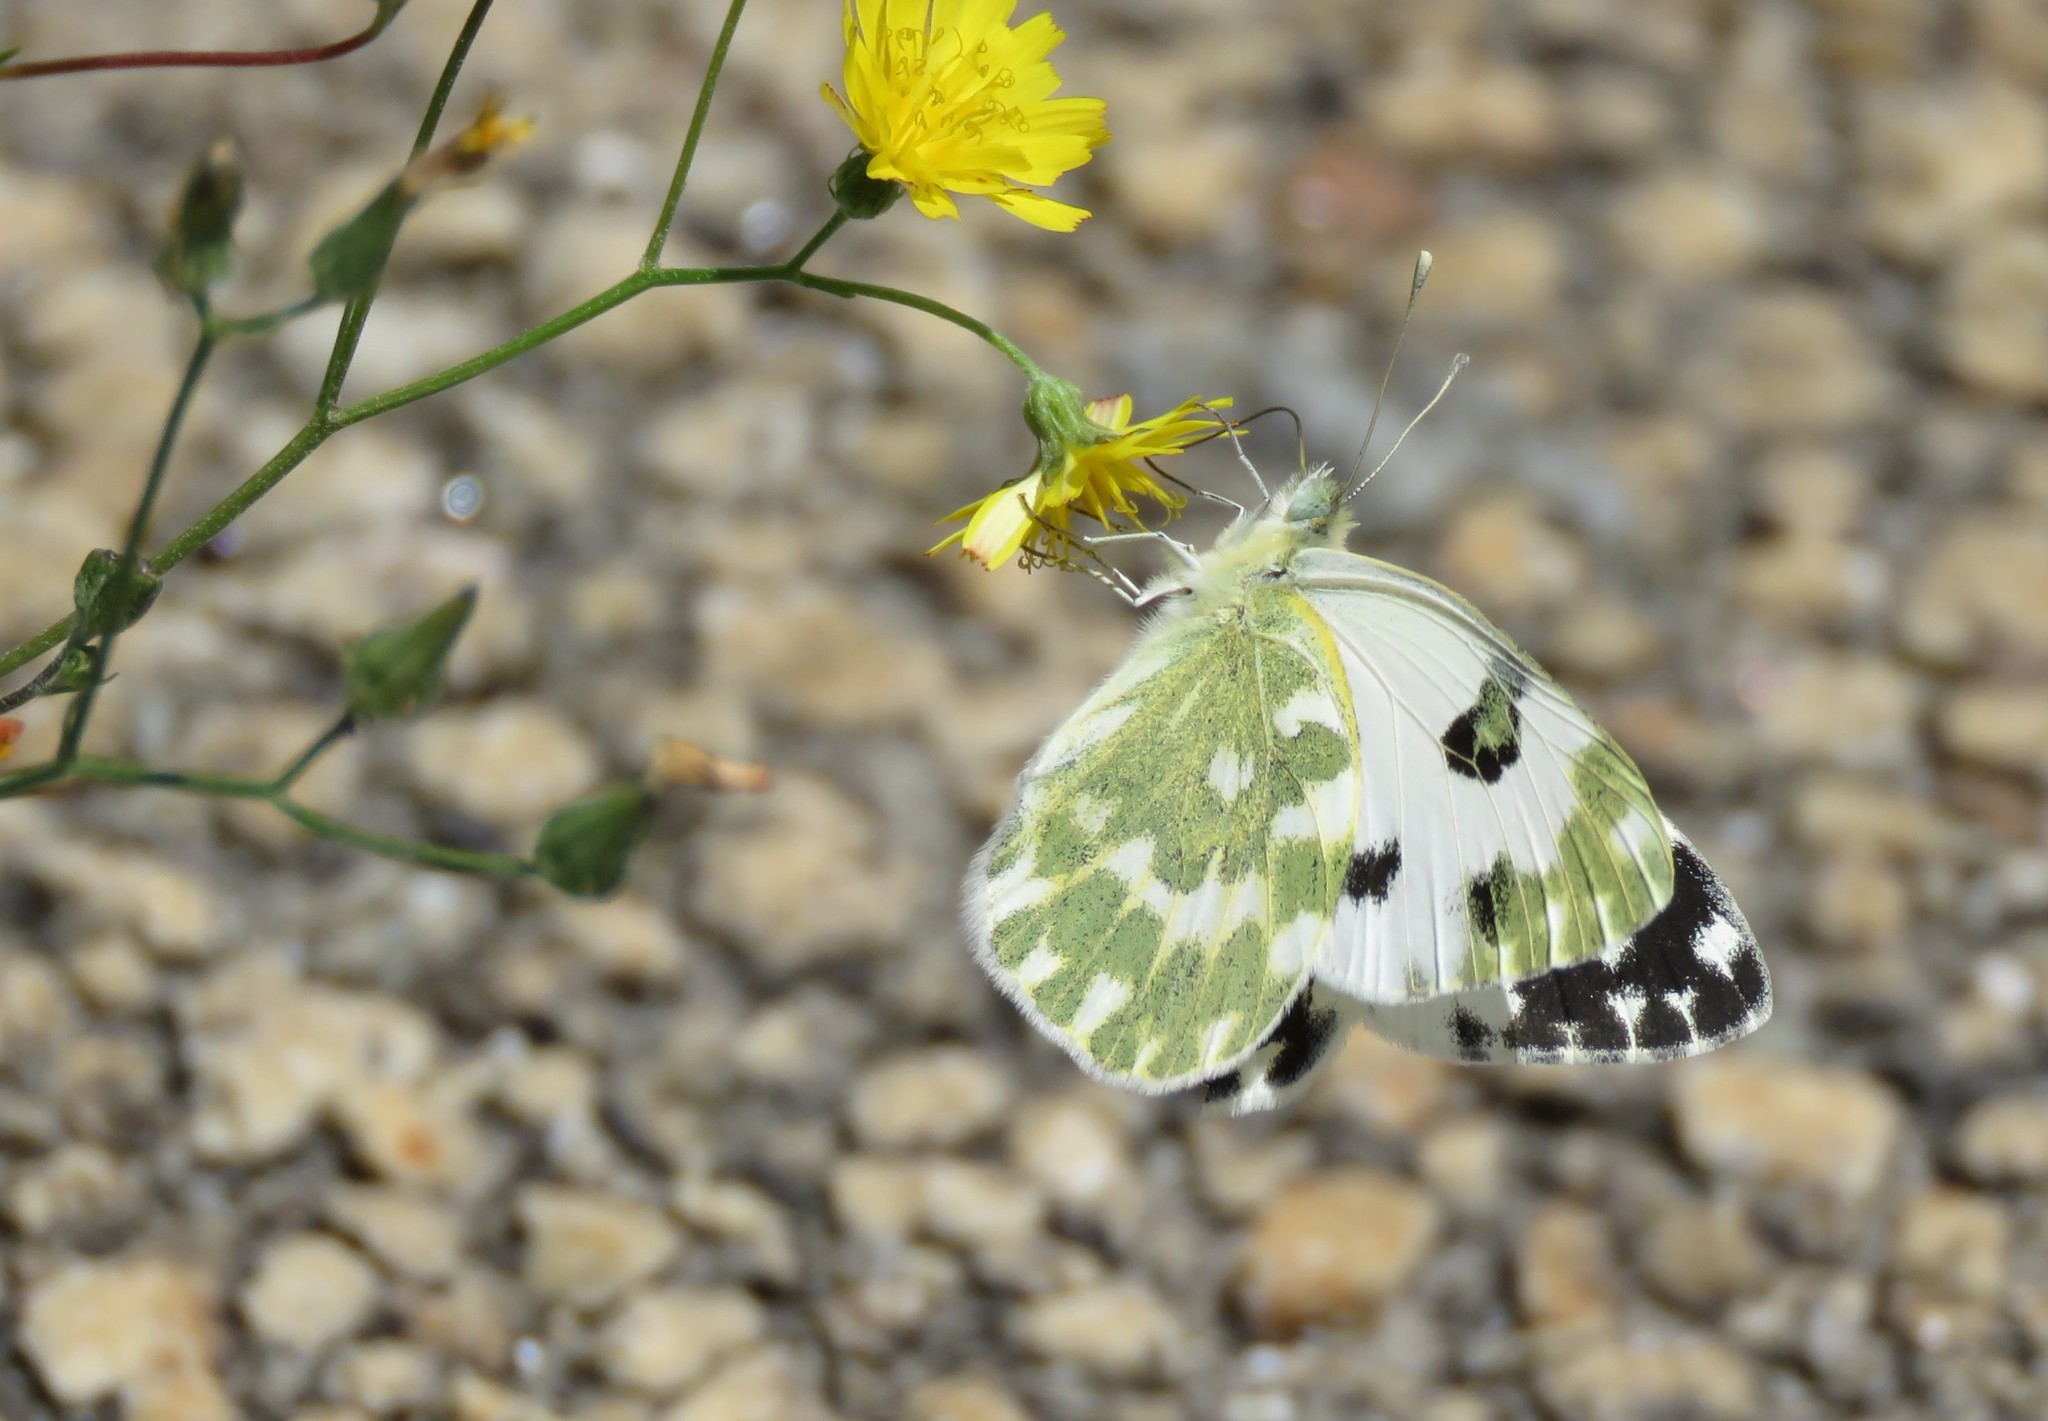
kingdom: Animalia
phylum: Arthropoda
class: Insecta
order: Lepidoptera
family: Pieridae
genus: Pontia
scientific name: Pontia daplidice
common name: Bath white
